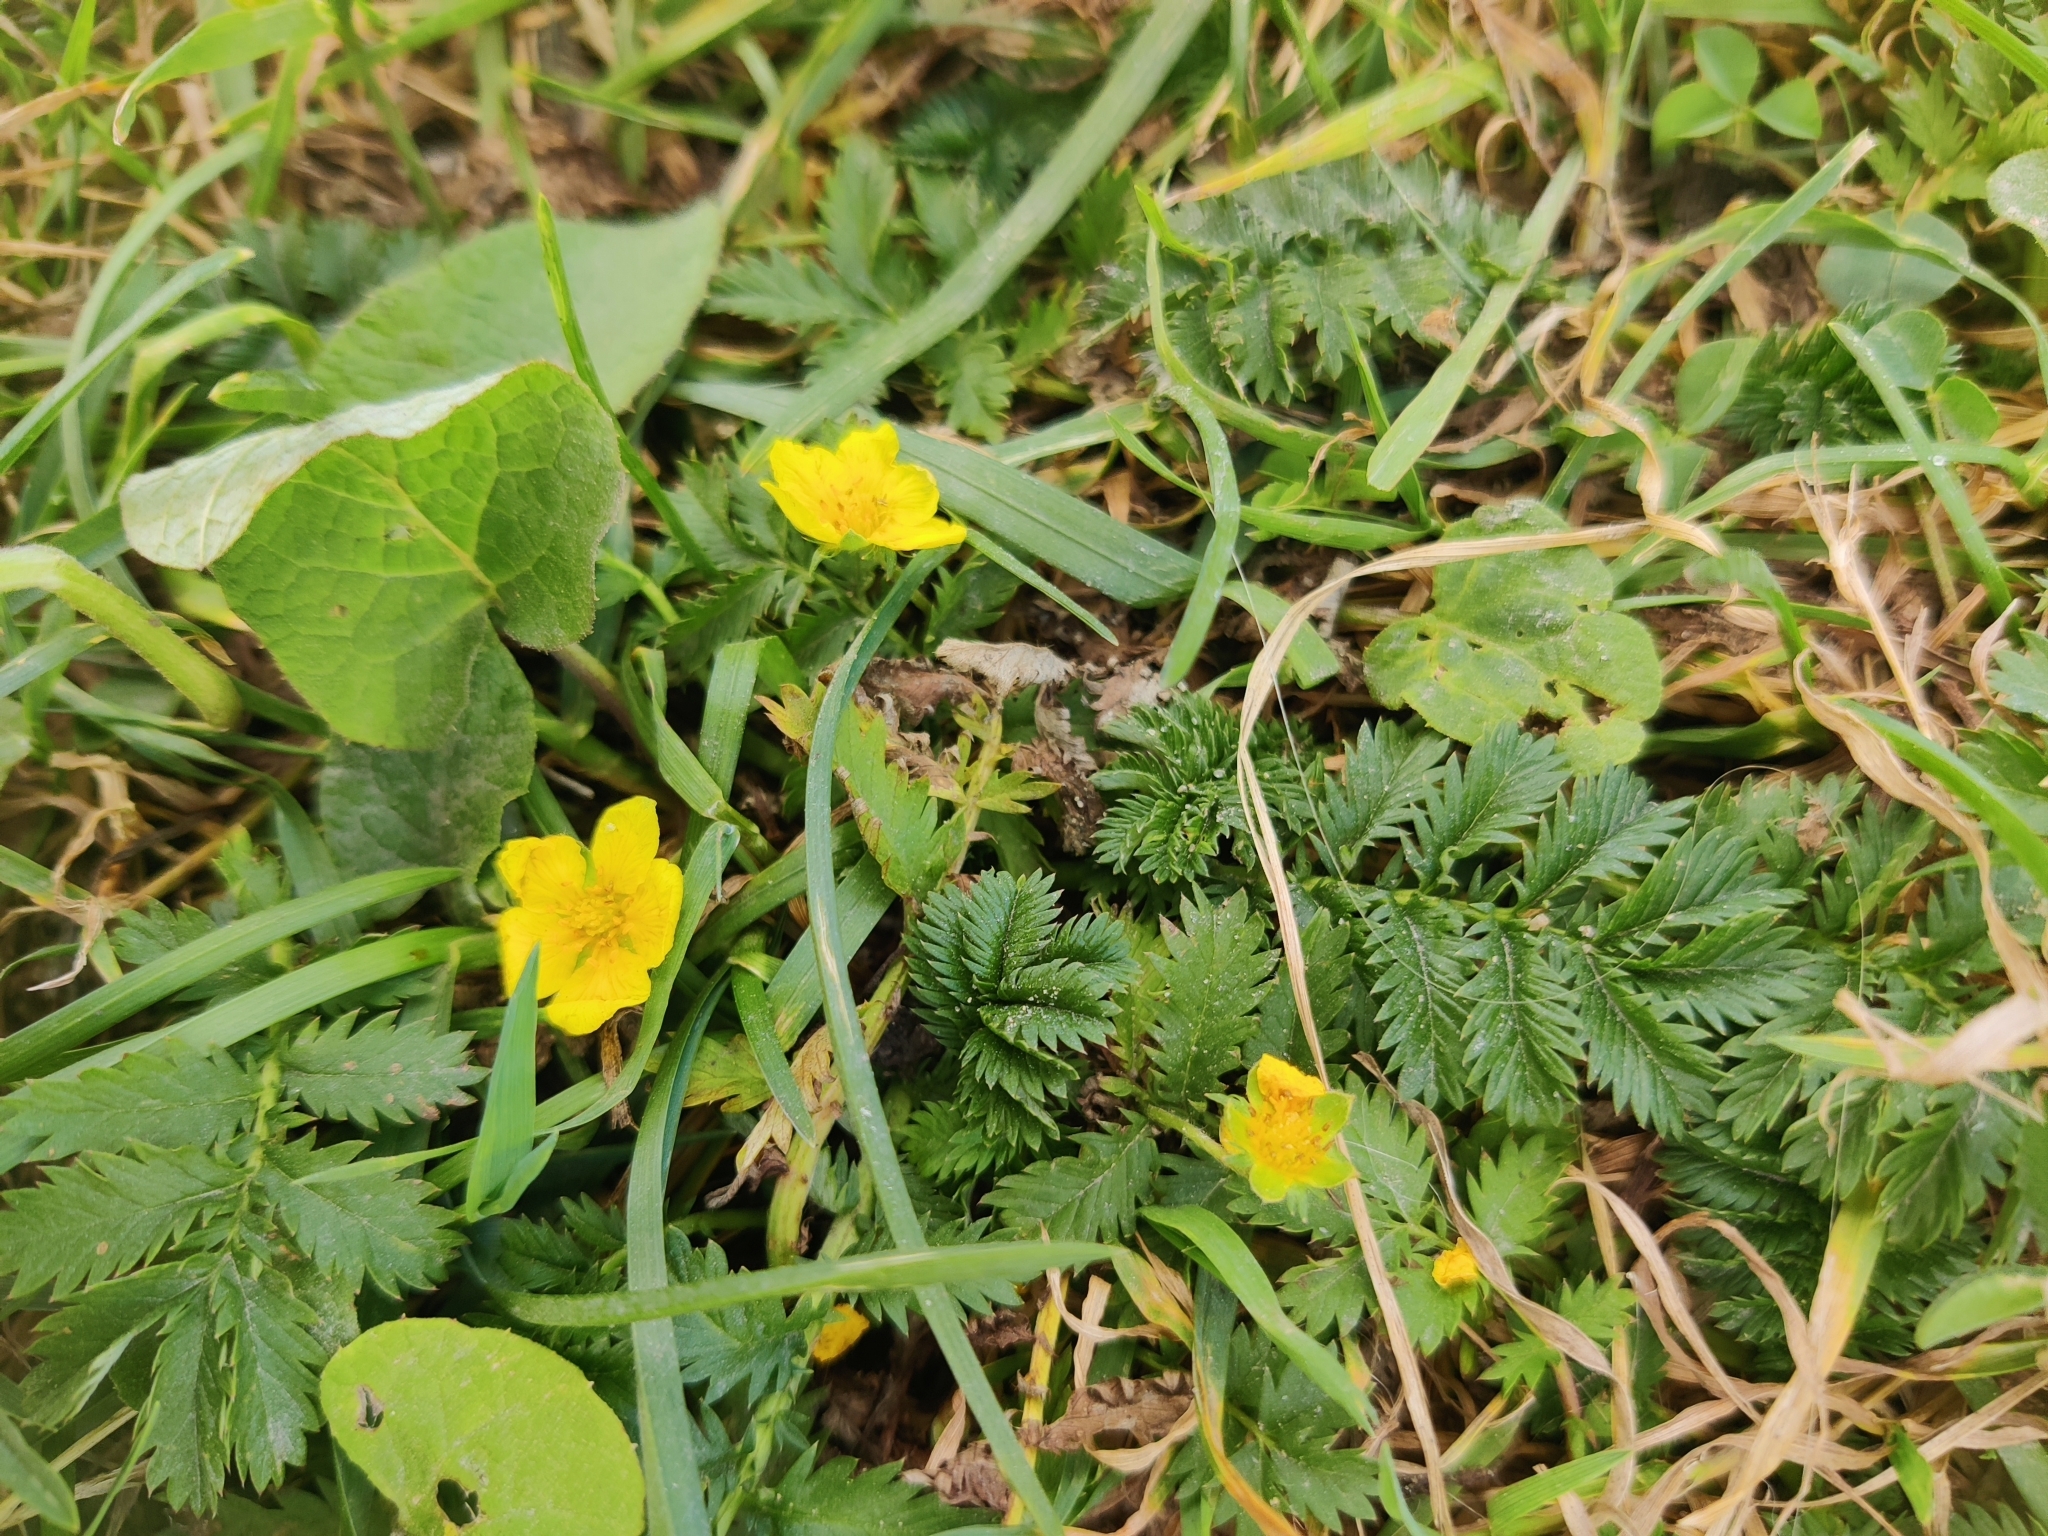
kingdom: Plantae
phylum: Tracheophyta
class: Magnoliopsida
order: Rosales
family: Rosaceae
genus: Argentina
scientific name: Argentina anserina
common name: Common silverweed
